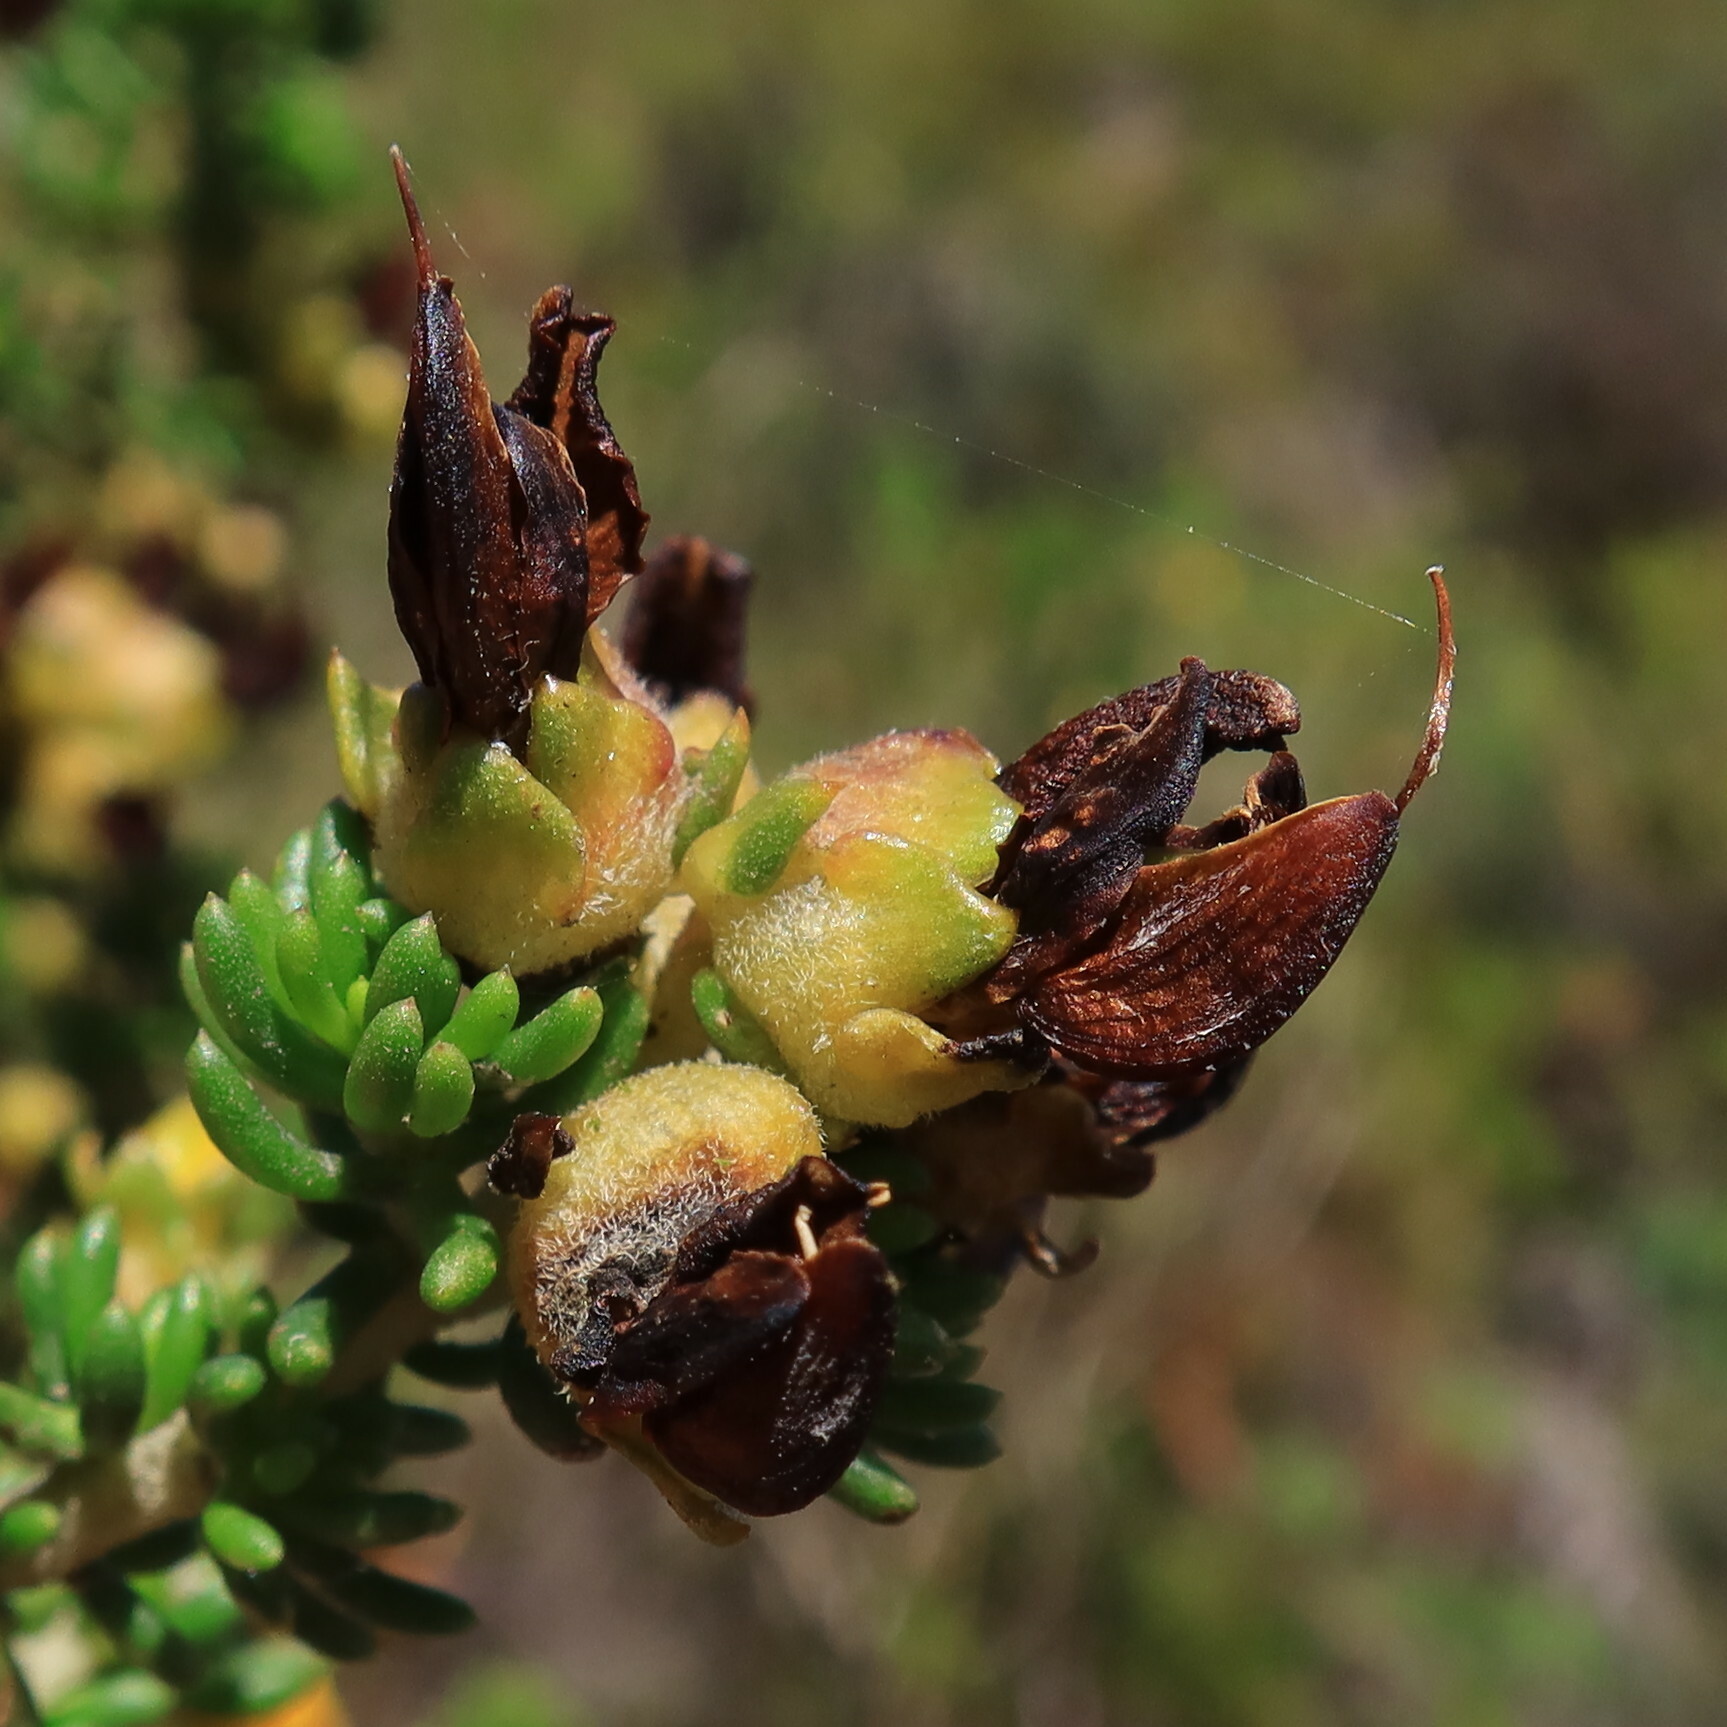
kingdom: Plantae
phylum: Tracheophyta
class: Magnoliopsida
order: Fabales
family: Fabaceae
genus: Aspalathus
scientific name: Aspalathus carnosa
